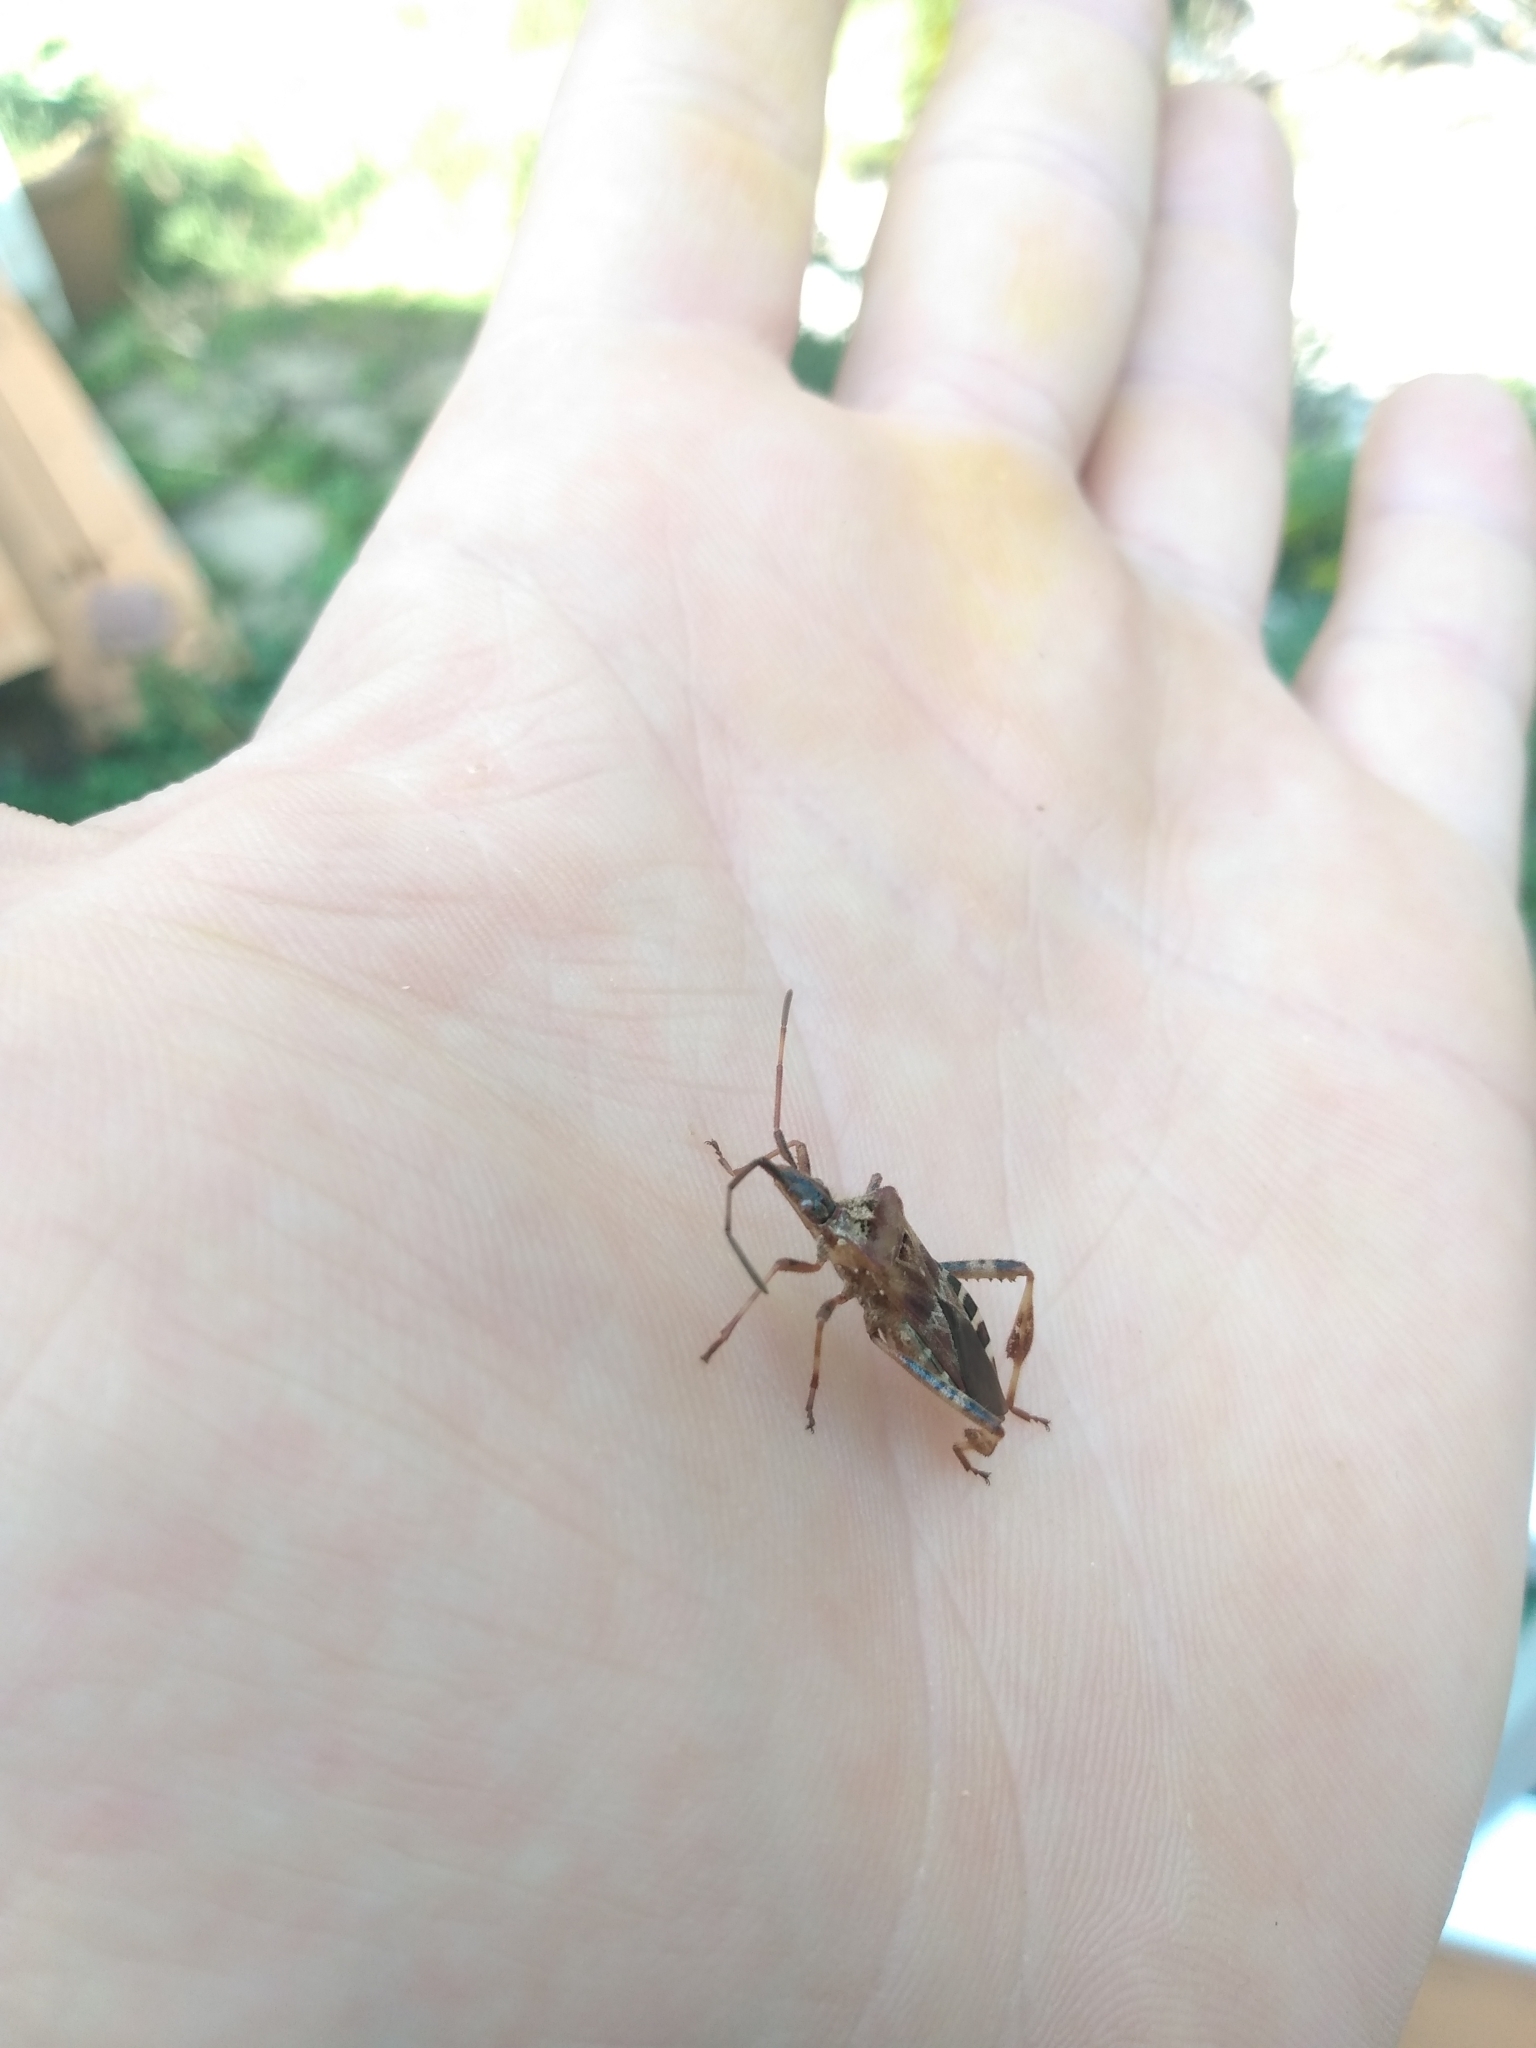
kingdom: Animalia
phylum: Arthropoda
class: Insecta
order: Hemiptera
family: Coreidae
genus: Leptoglossus
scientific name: Leptoglossus occidentalis
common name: Western conifer-seed bug
